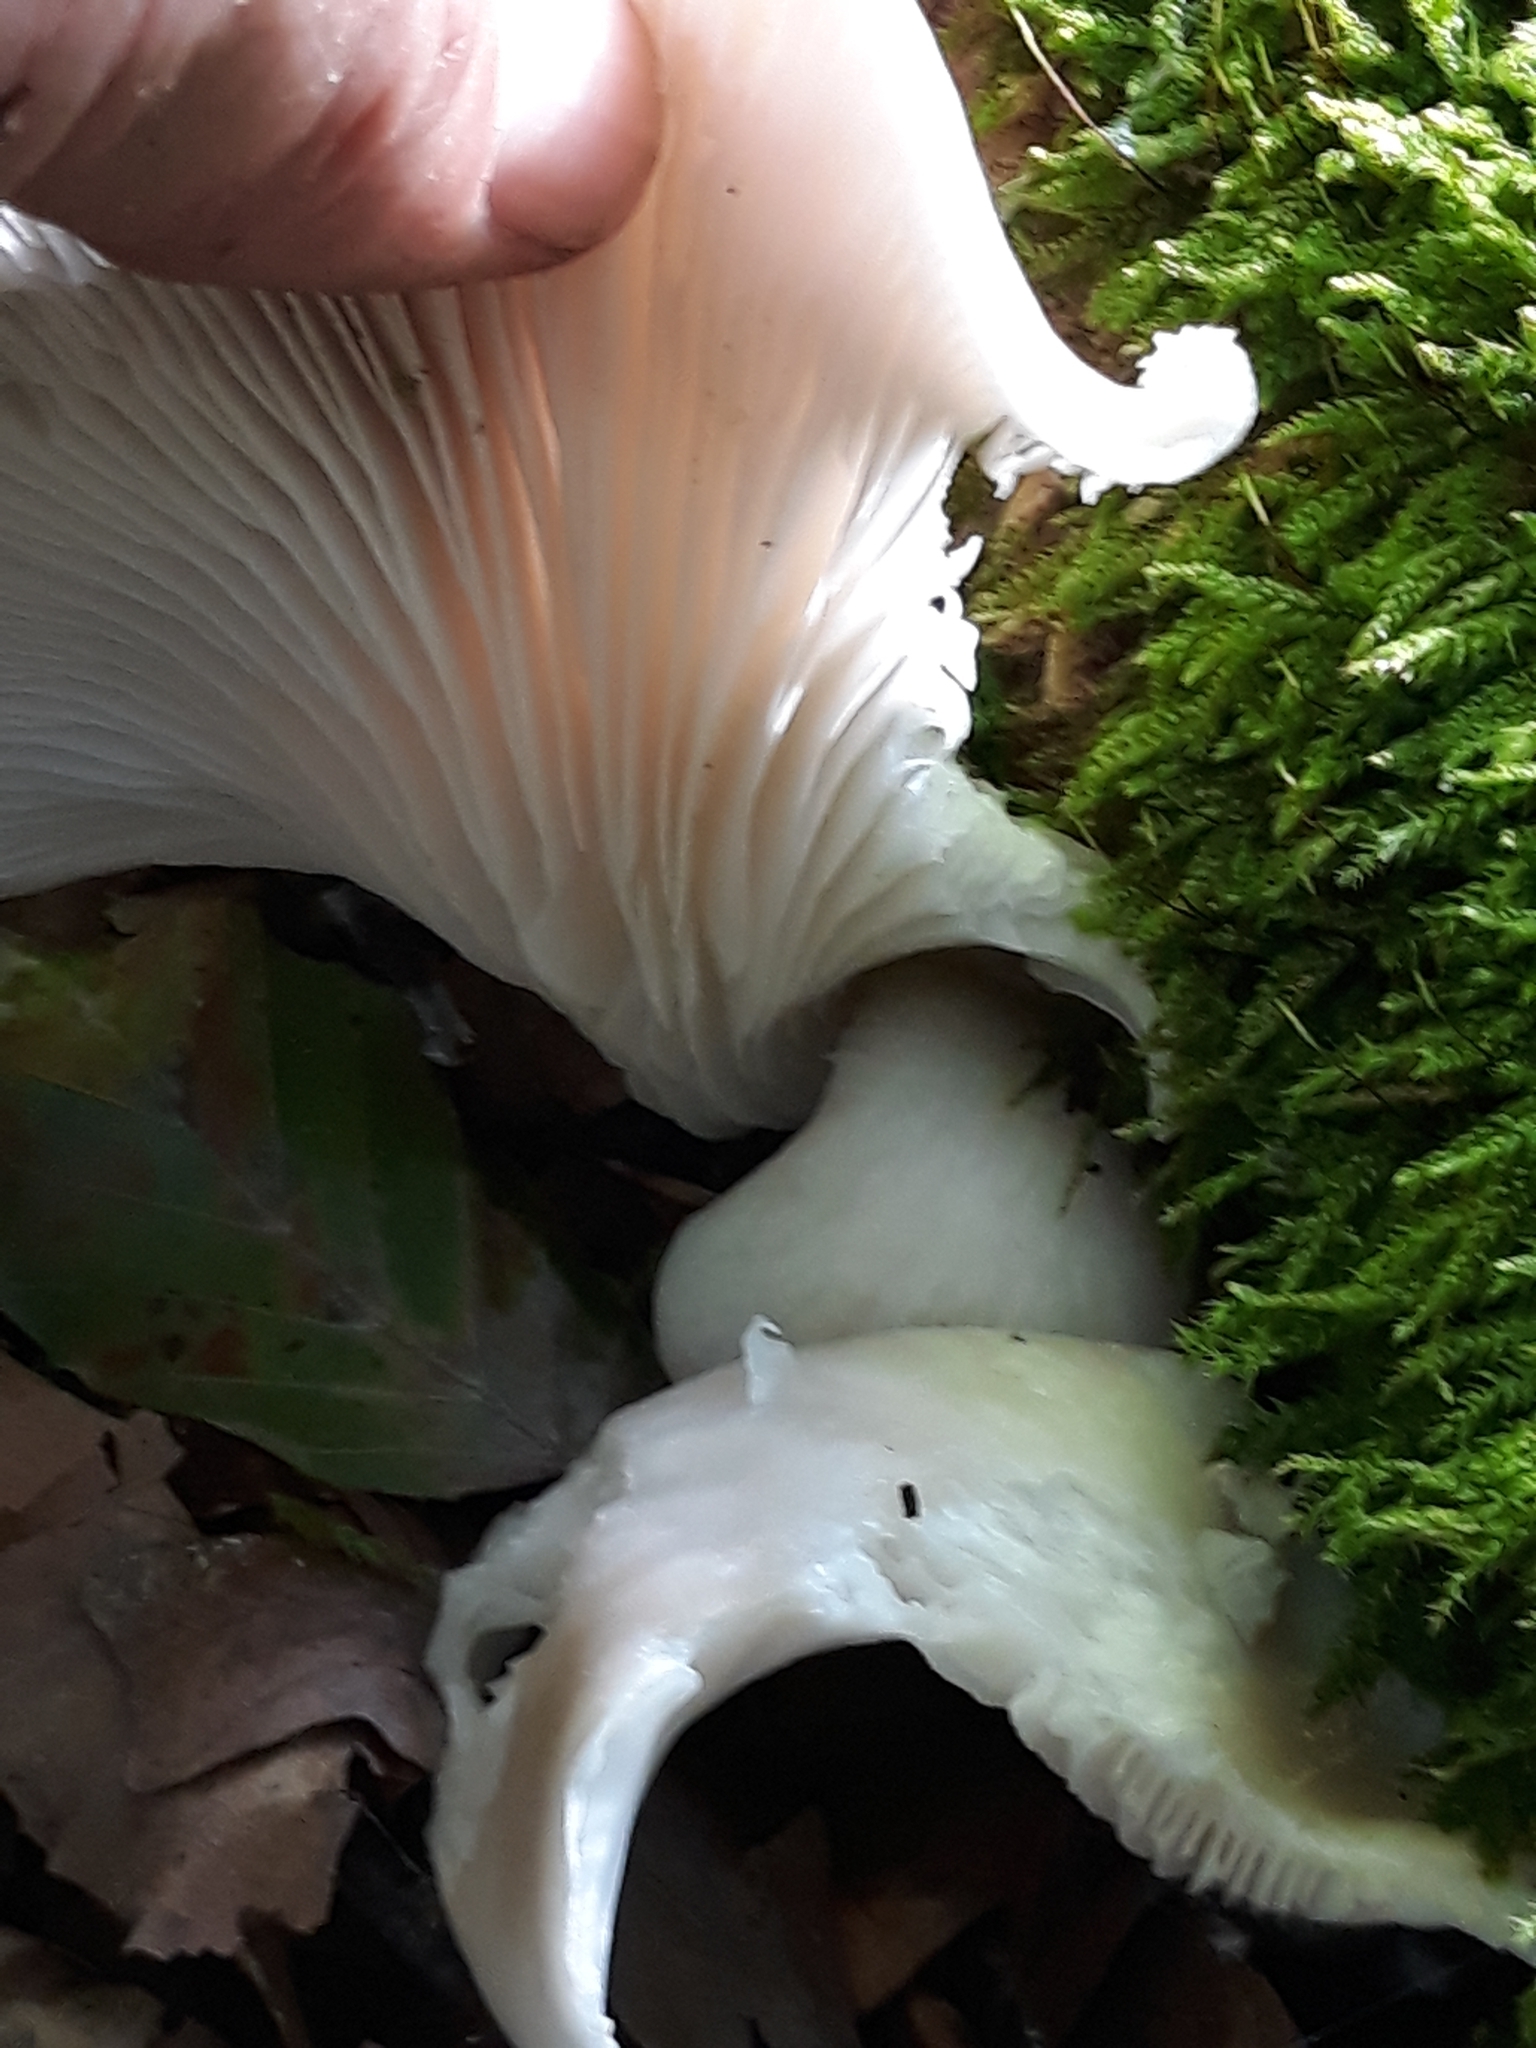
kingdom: Fungi
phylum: Basidiomycota
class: Agaricomycetes
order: Agaricales
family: Pleurotaceae
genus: Pleurotus
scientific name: Pleurotus pulmonarius
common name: Pale oyster
